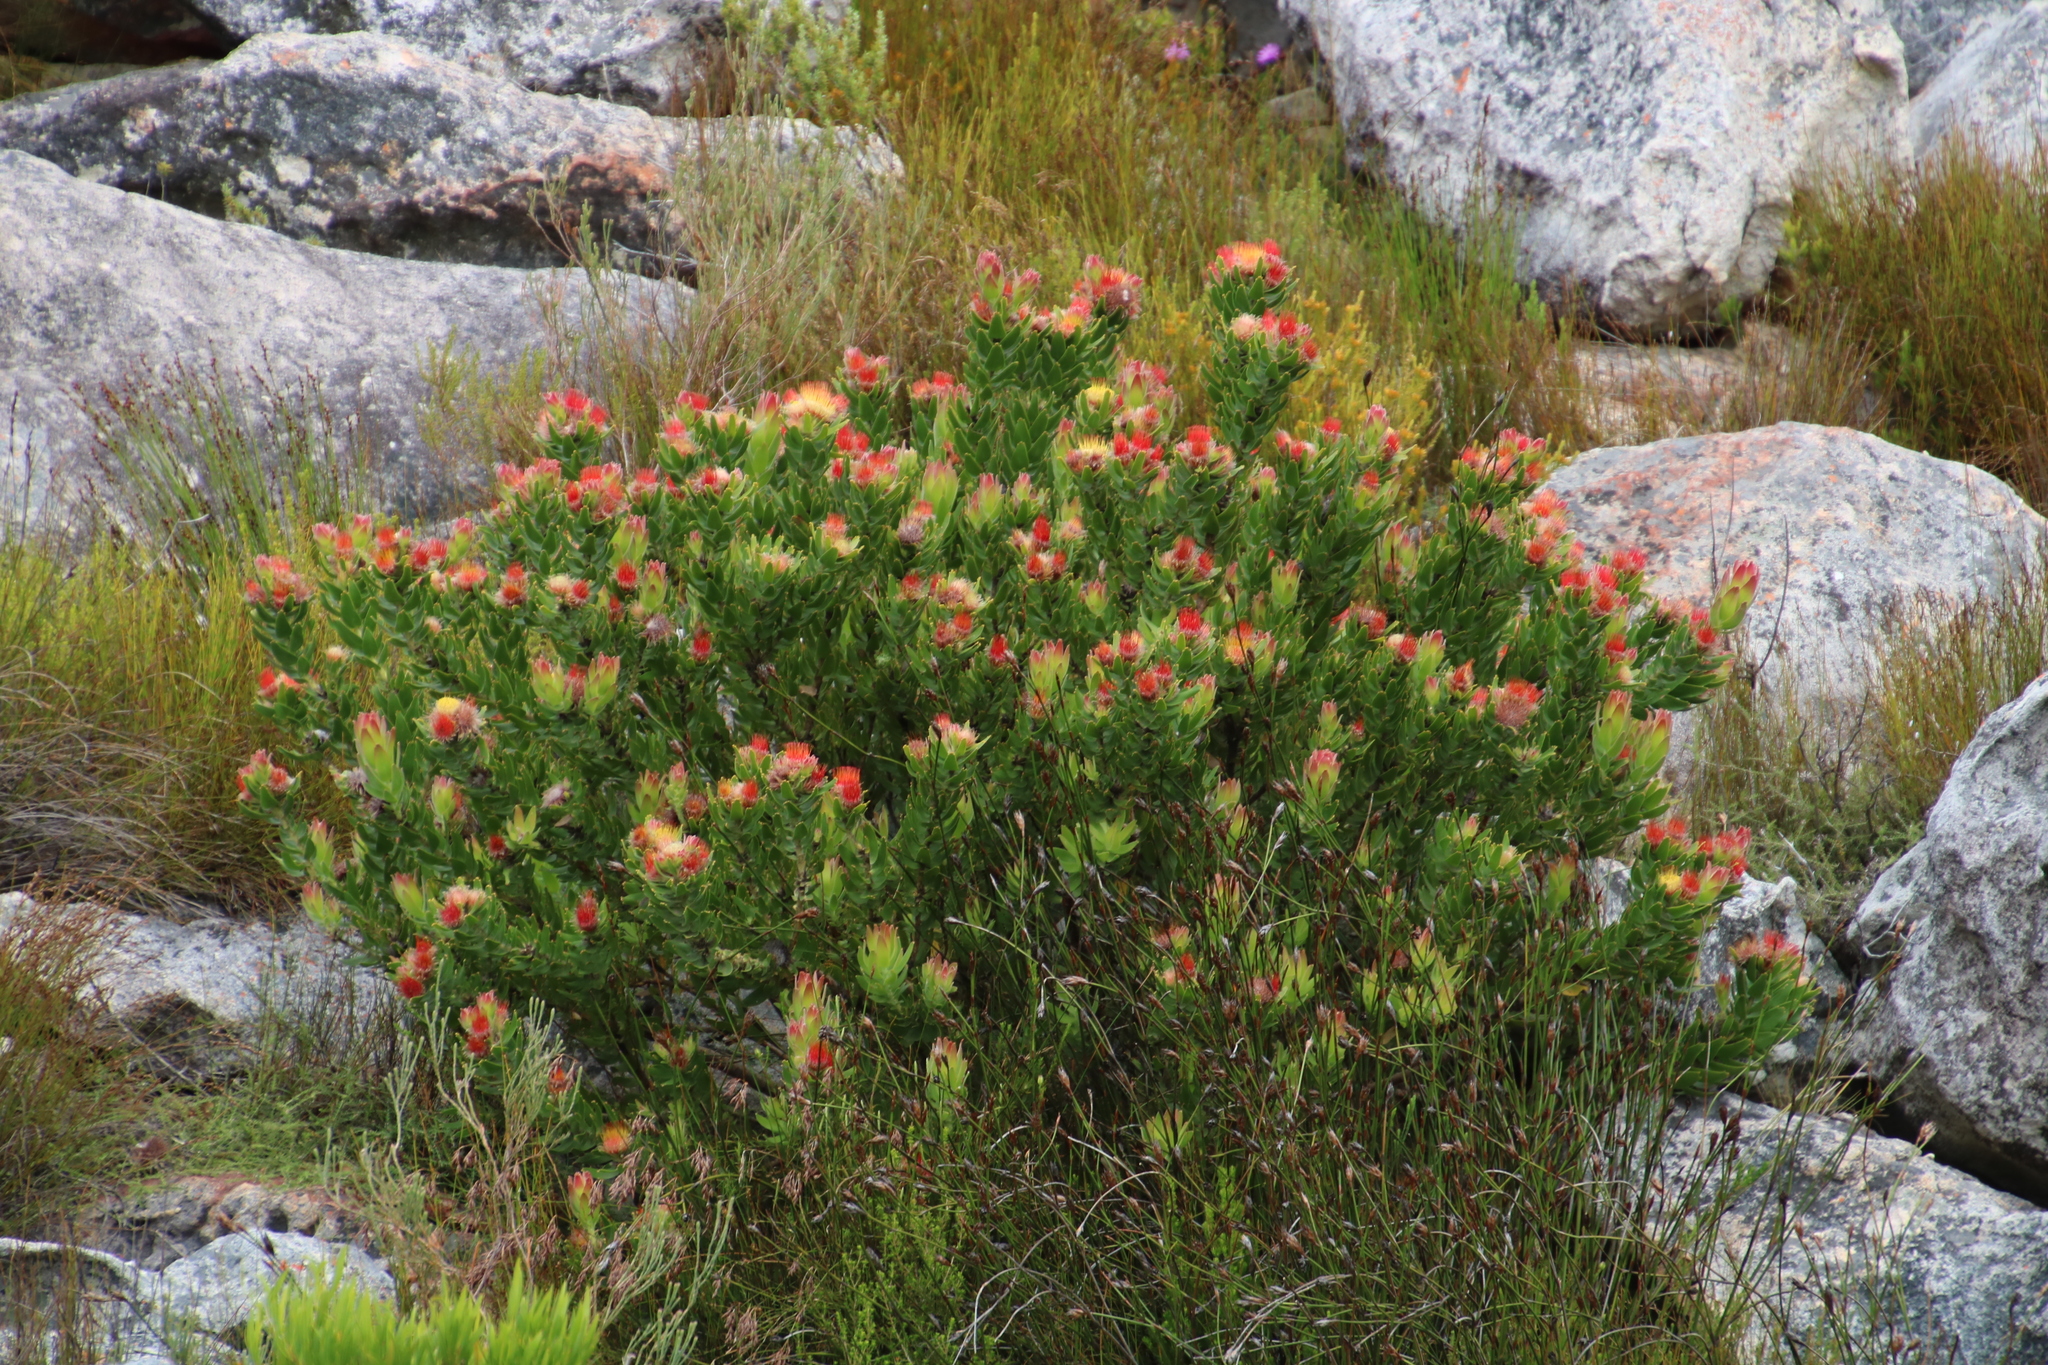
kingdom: Plantae
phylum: Tracheophyta
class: Magnoliopsida
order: Proteales
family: Proteaceae
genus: Leucospermum
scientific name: Leucospermum oleifolium
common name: Matches
